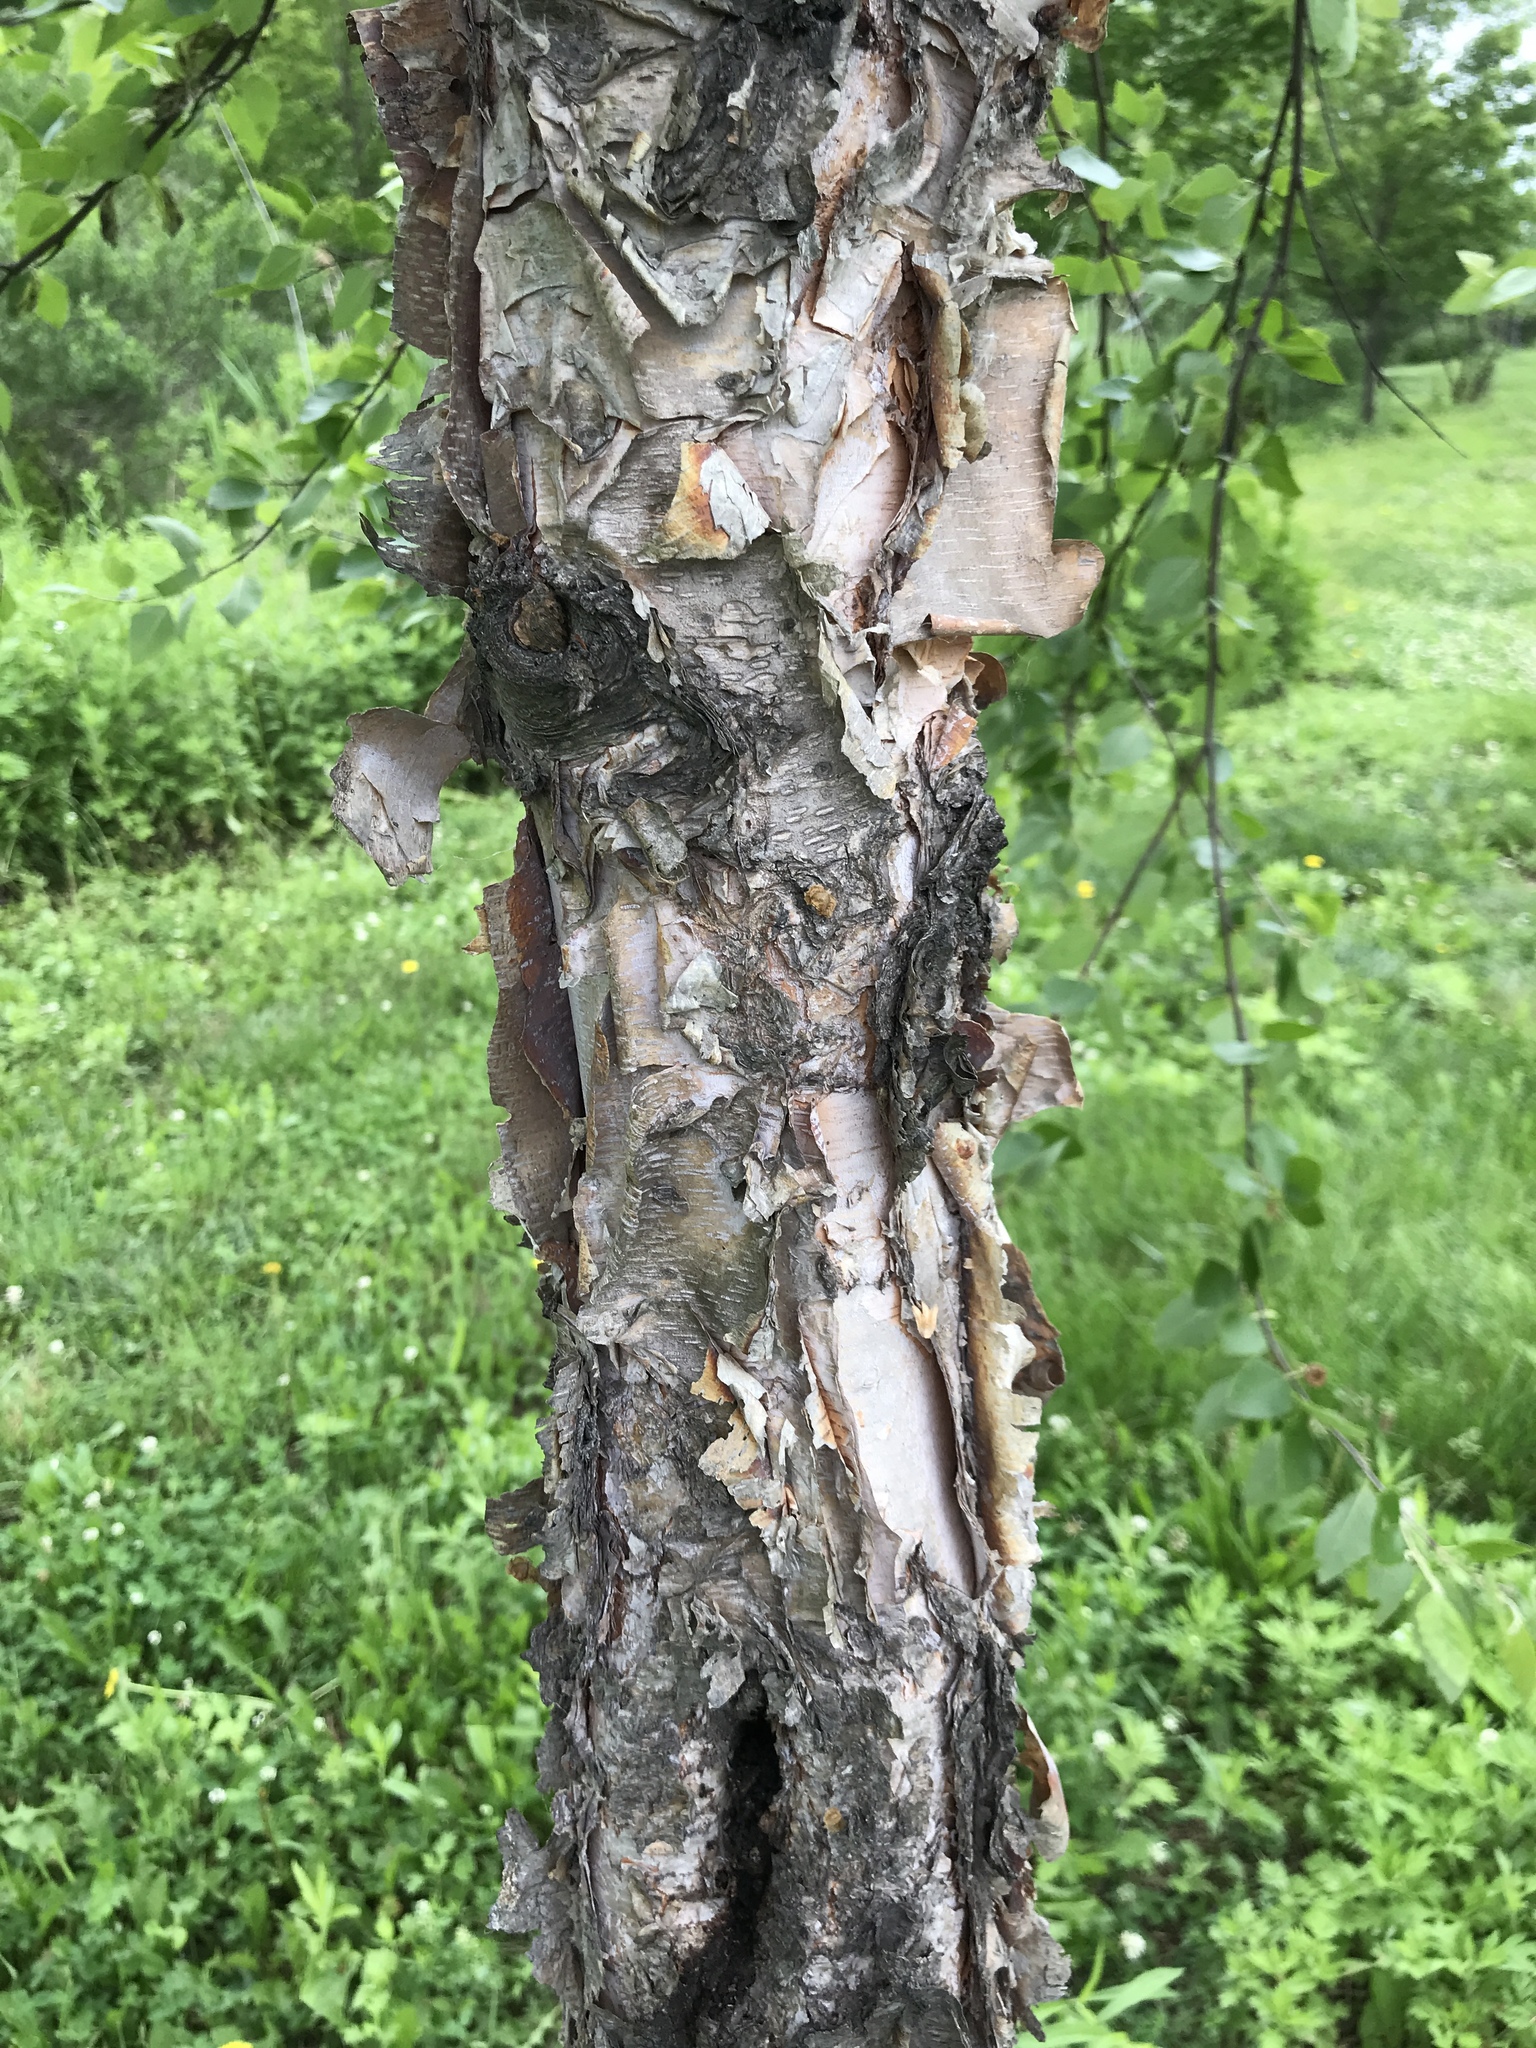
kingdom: Plantae
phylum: Tracheophyta
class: Magnoliopsida
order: Fagales
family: Betulaceae
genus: Betula
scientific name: Betula nigra
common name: Black birch
